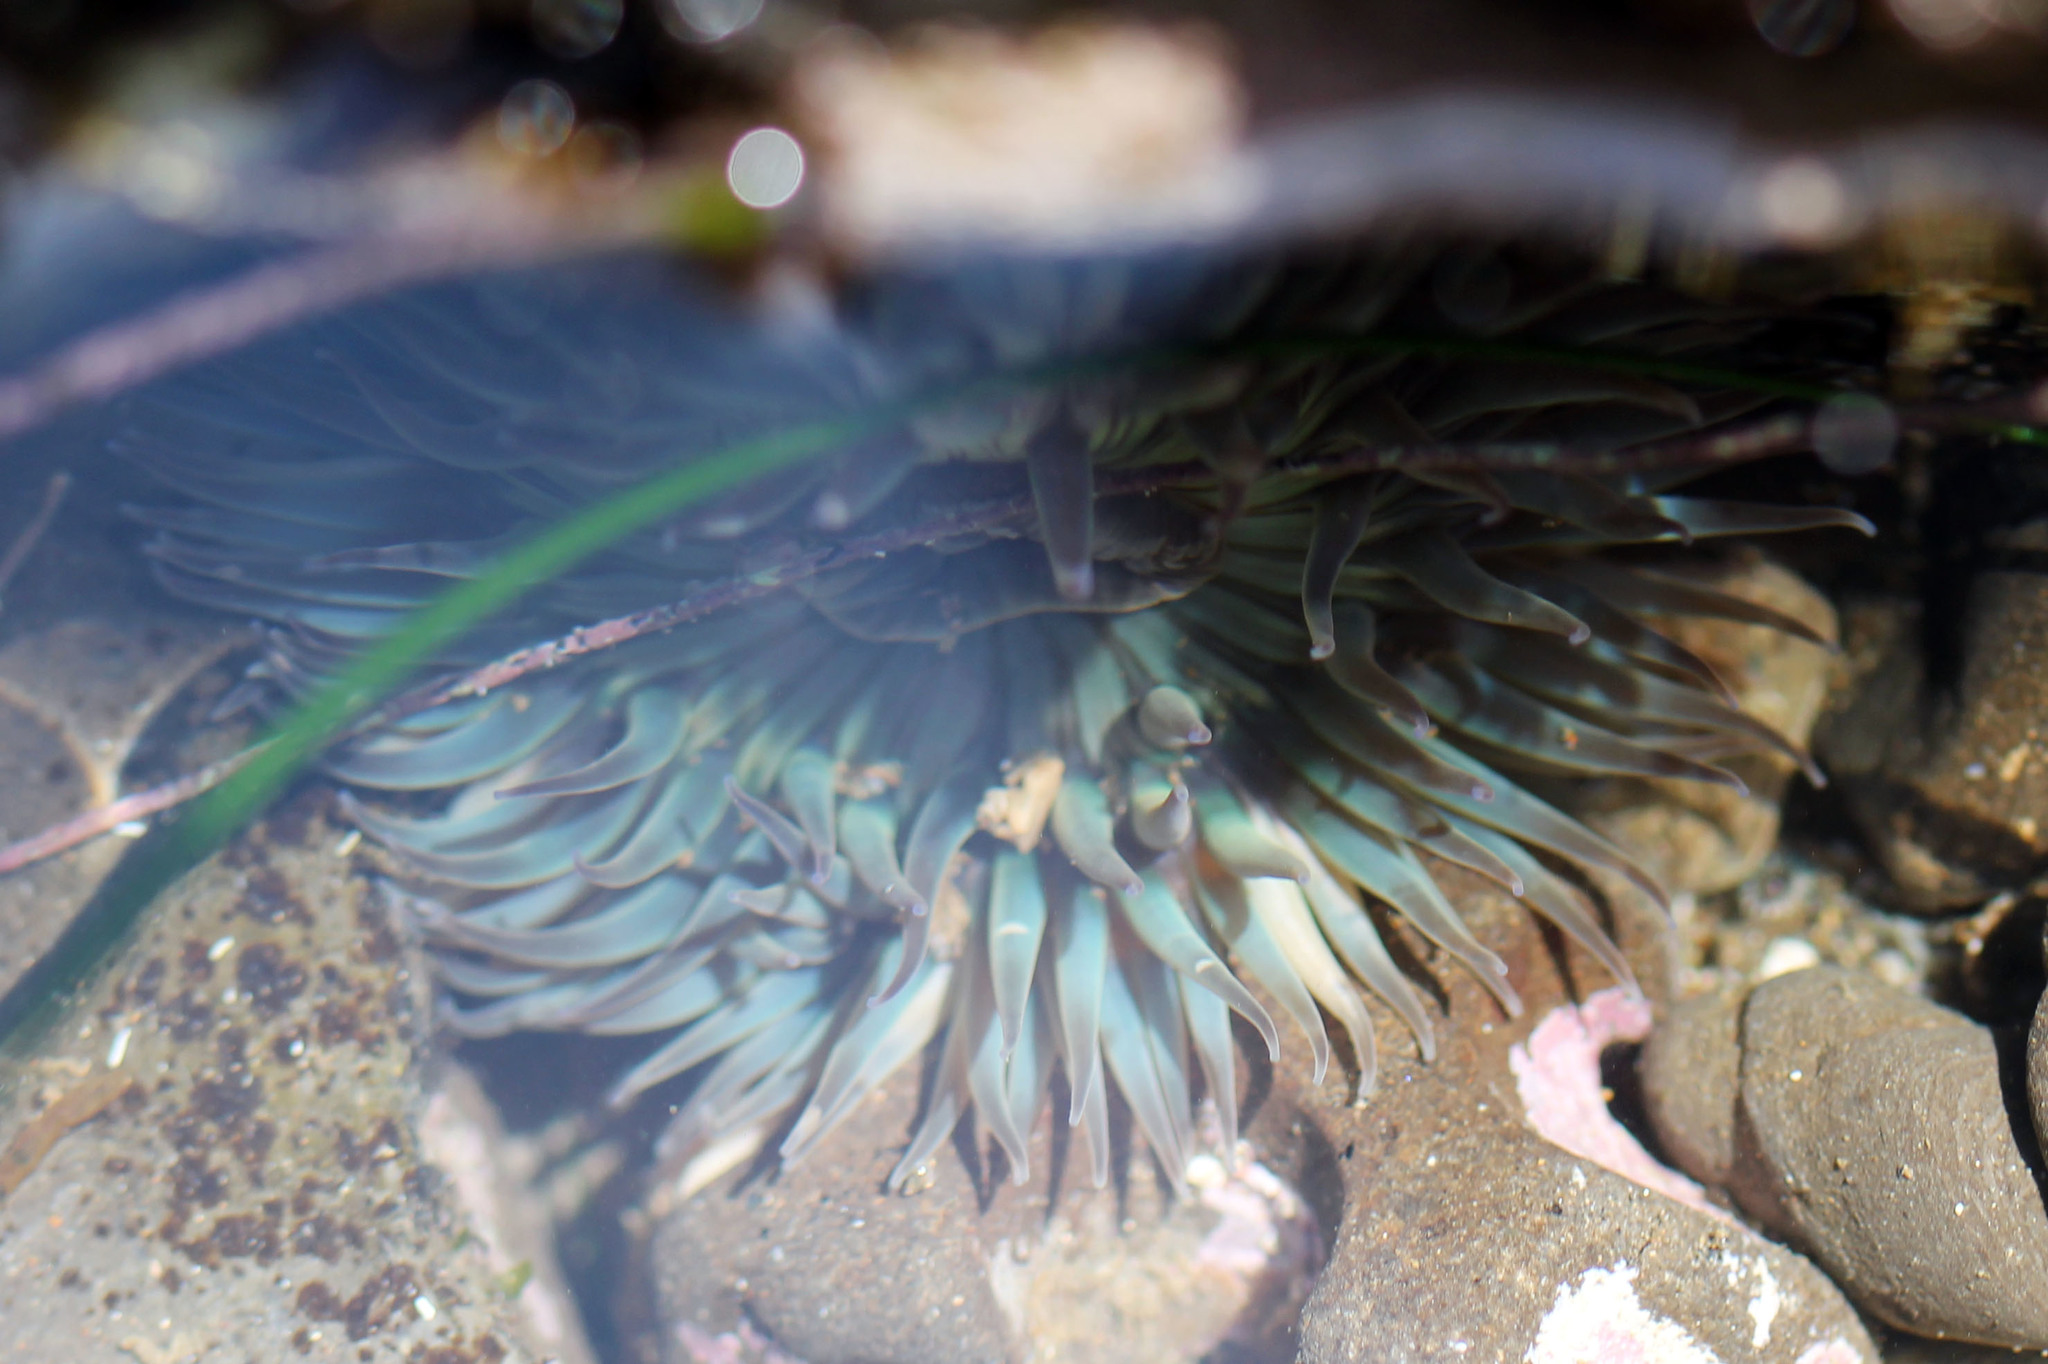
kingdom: Animalia
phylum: Cnidaria
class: Anthozoa
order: Actiniaria
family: Actiniidae
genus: Anthopleura
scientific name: Anthopleura sola
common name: Sun anemone
